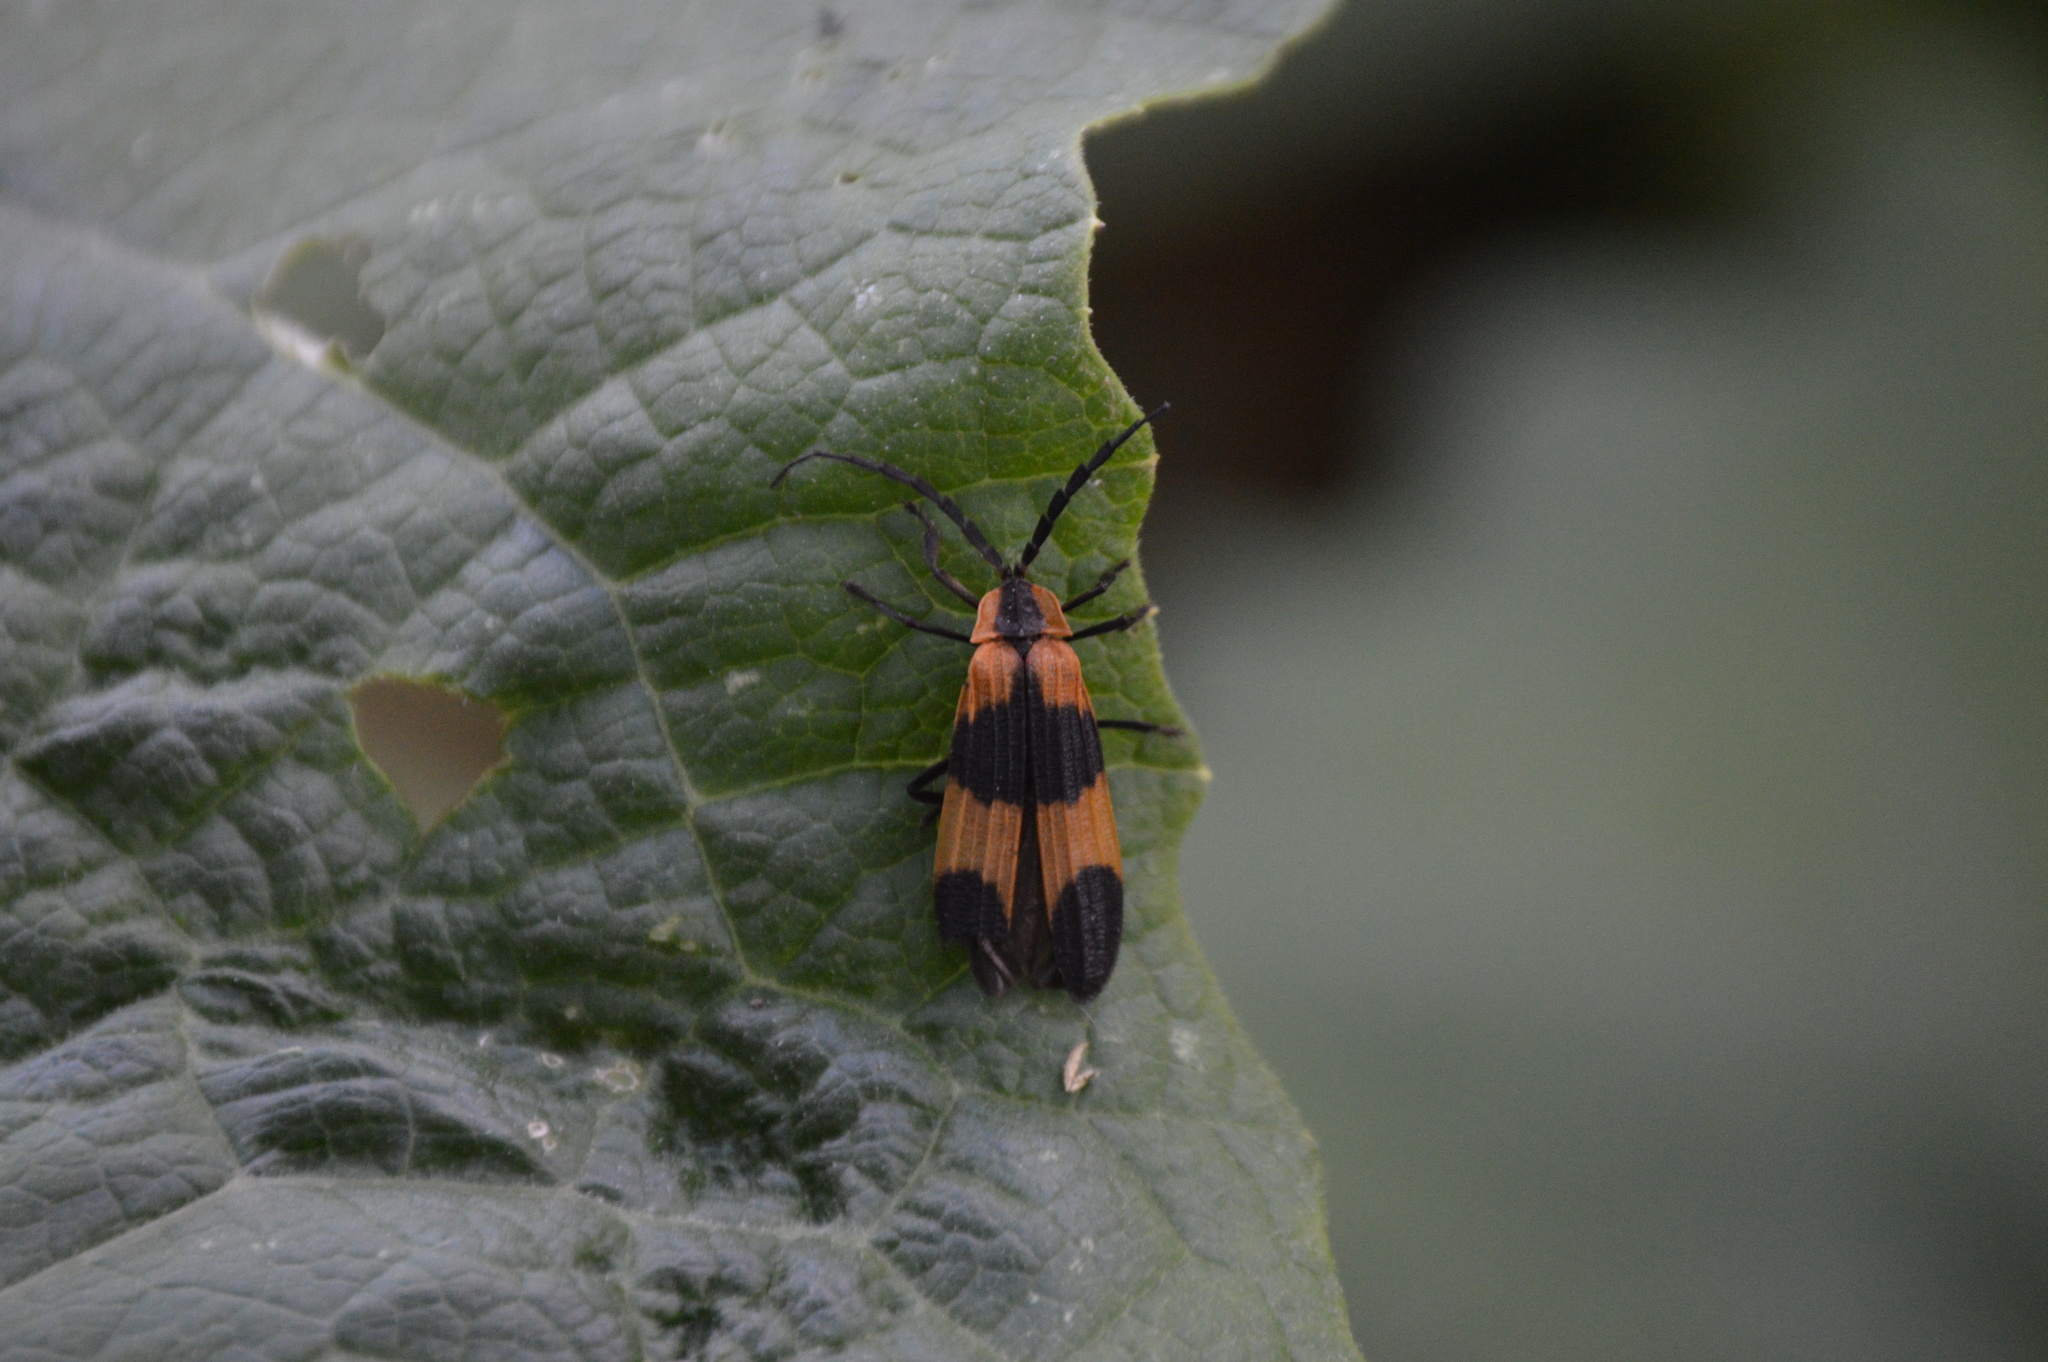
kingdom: Animalia
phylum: Arthropoda
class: Insecta
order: Coleoptera
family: Lycidae
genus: Calopteron
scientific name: Calopteron reticulatum
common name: Banded net-winged beetle
